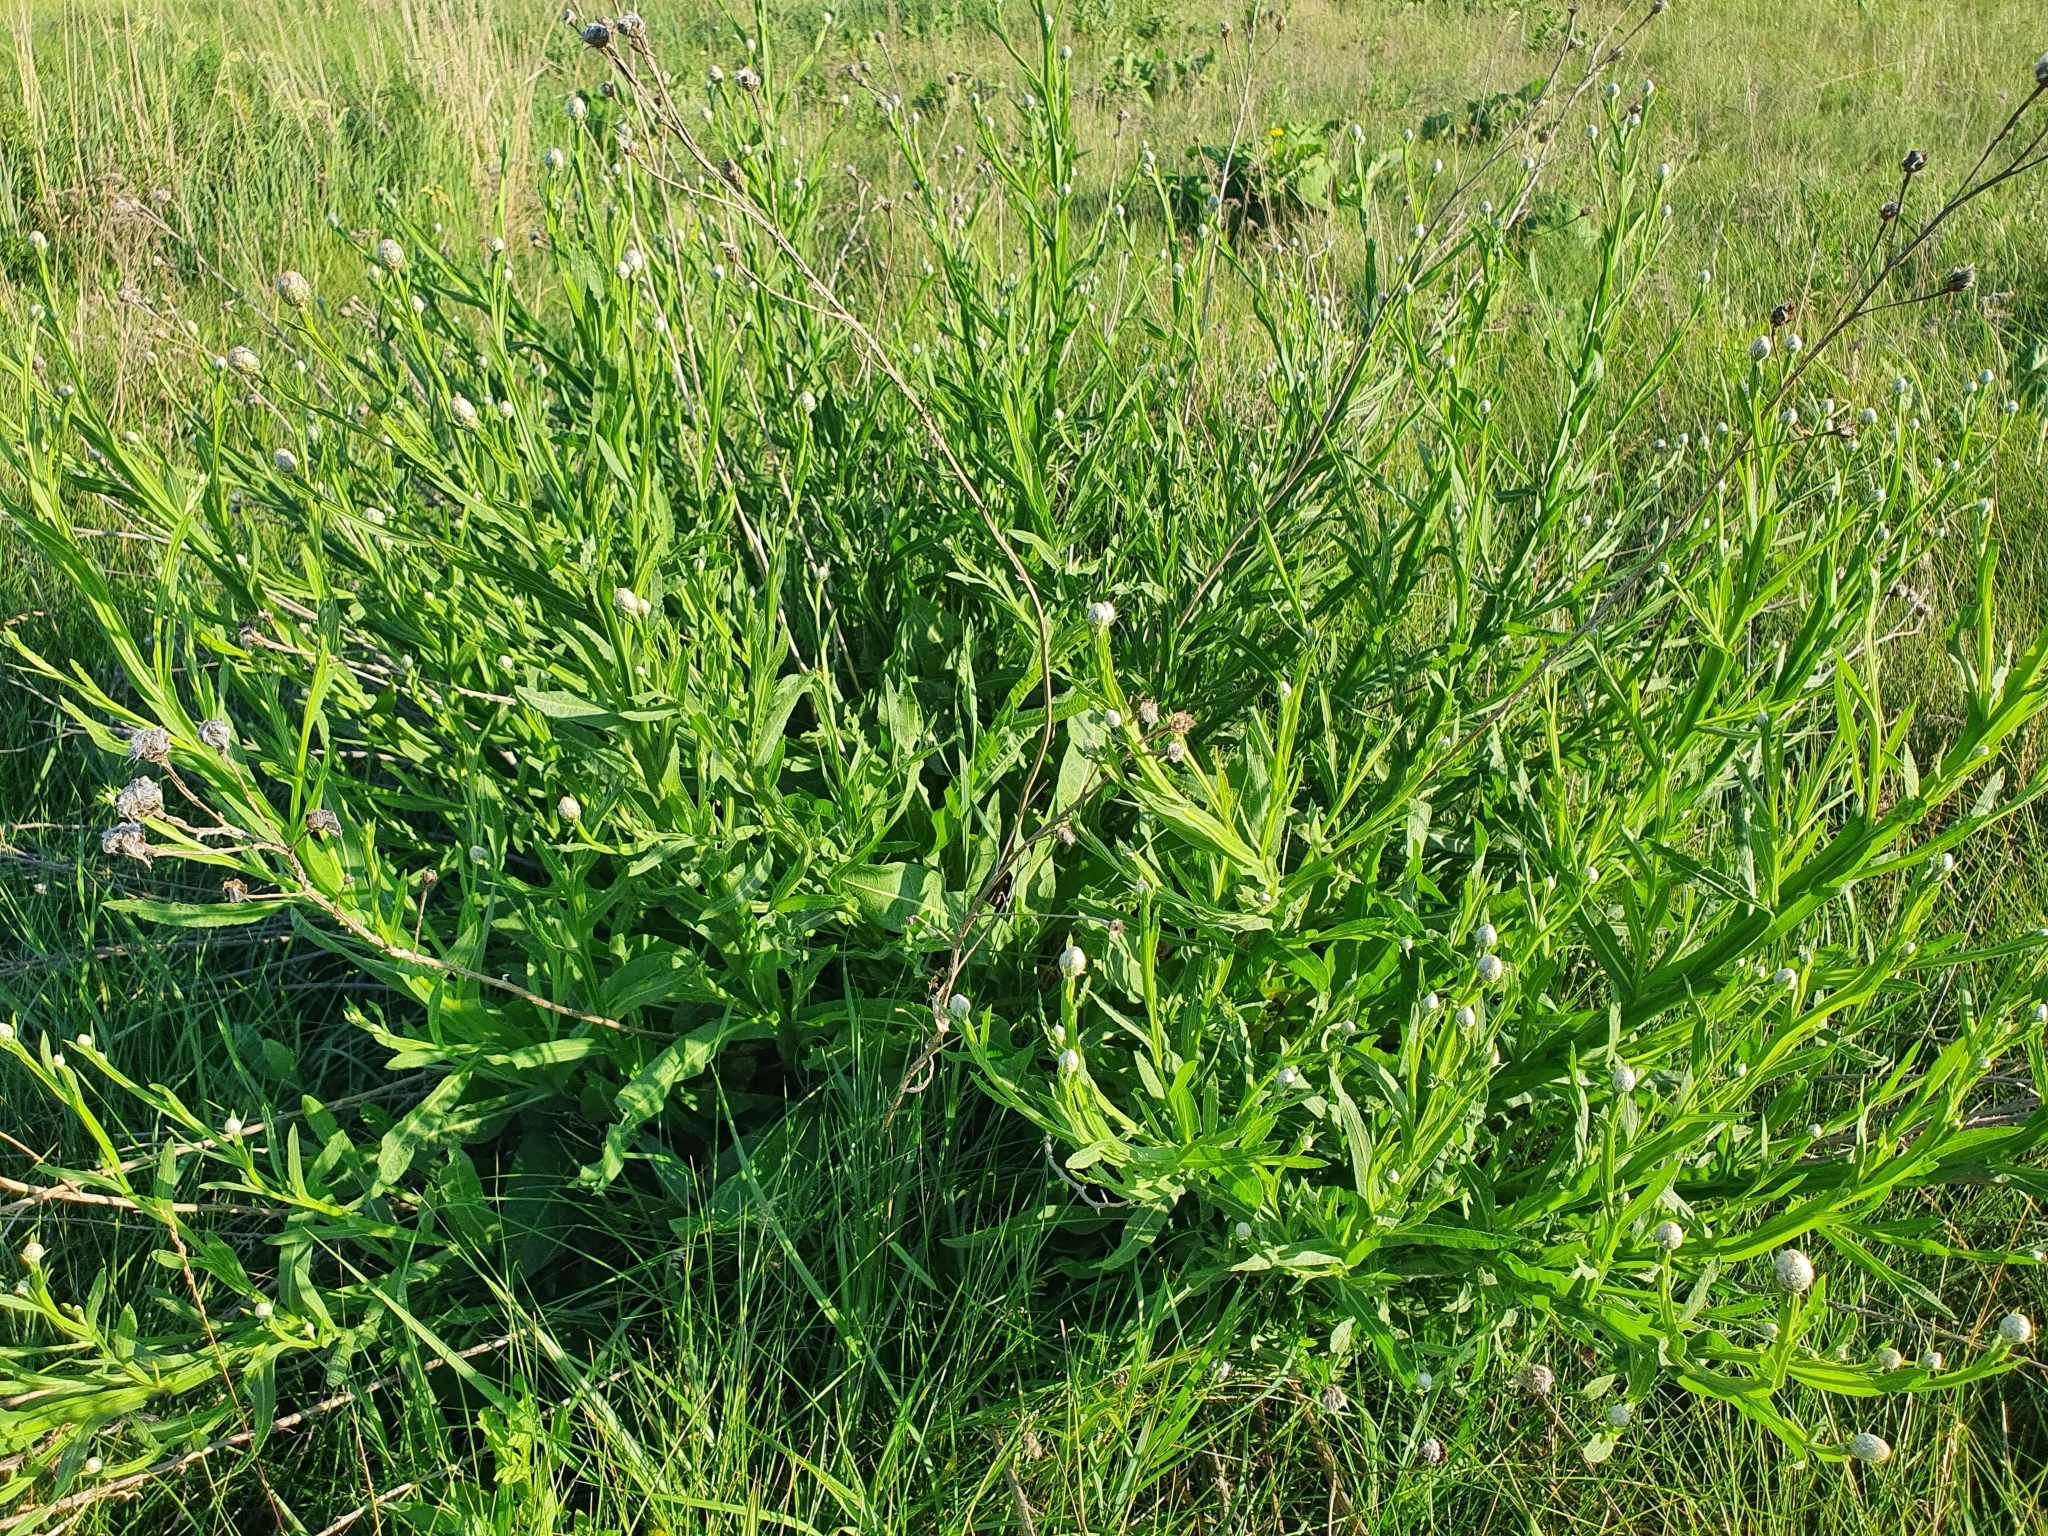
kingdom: Plantae
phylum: Tracheophyta
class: Magnoliopsida
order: Asterales
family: Asteraceae
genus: Centaurea
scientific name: Centaurea glastifolia
